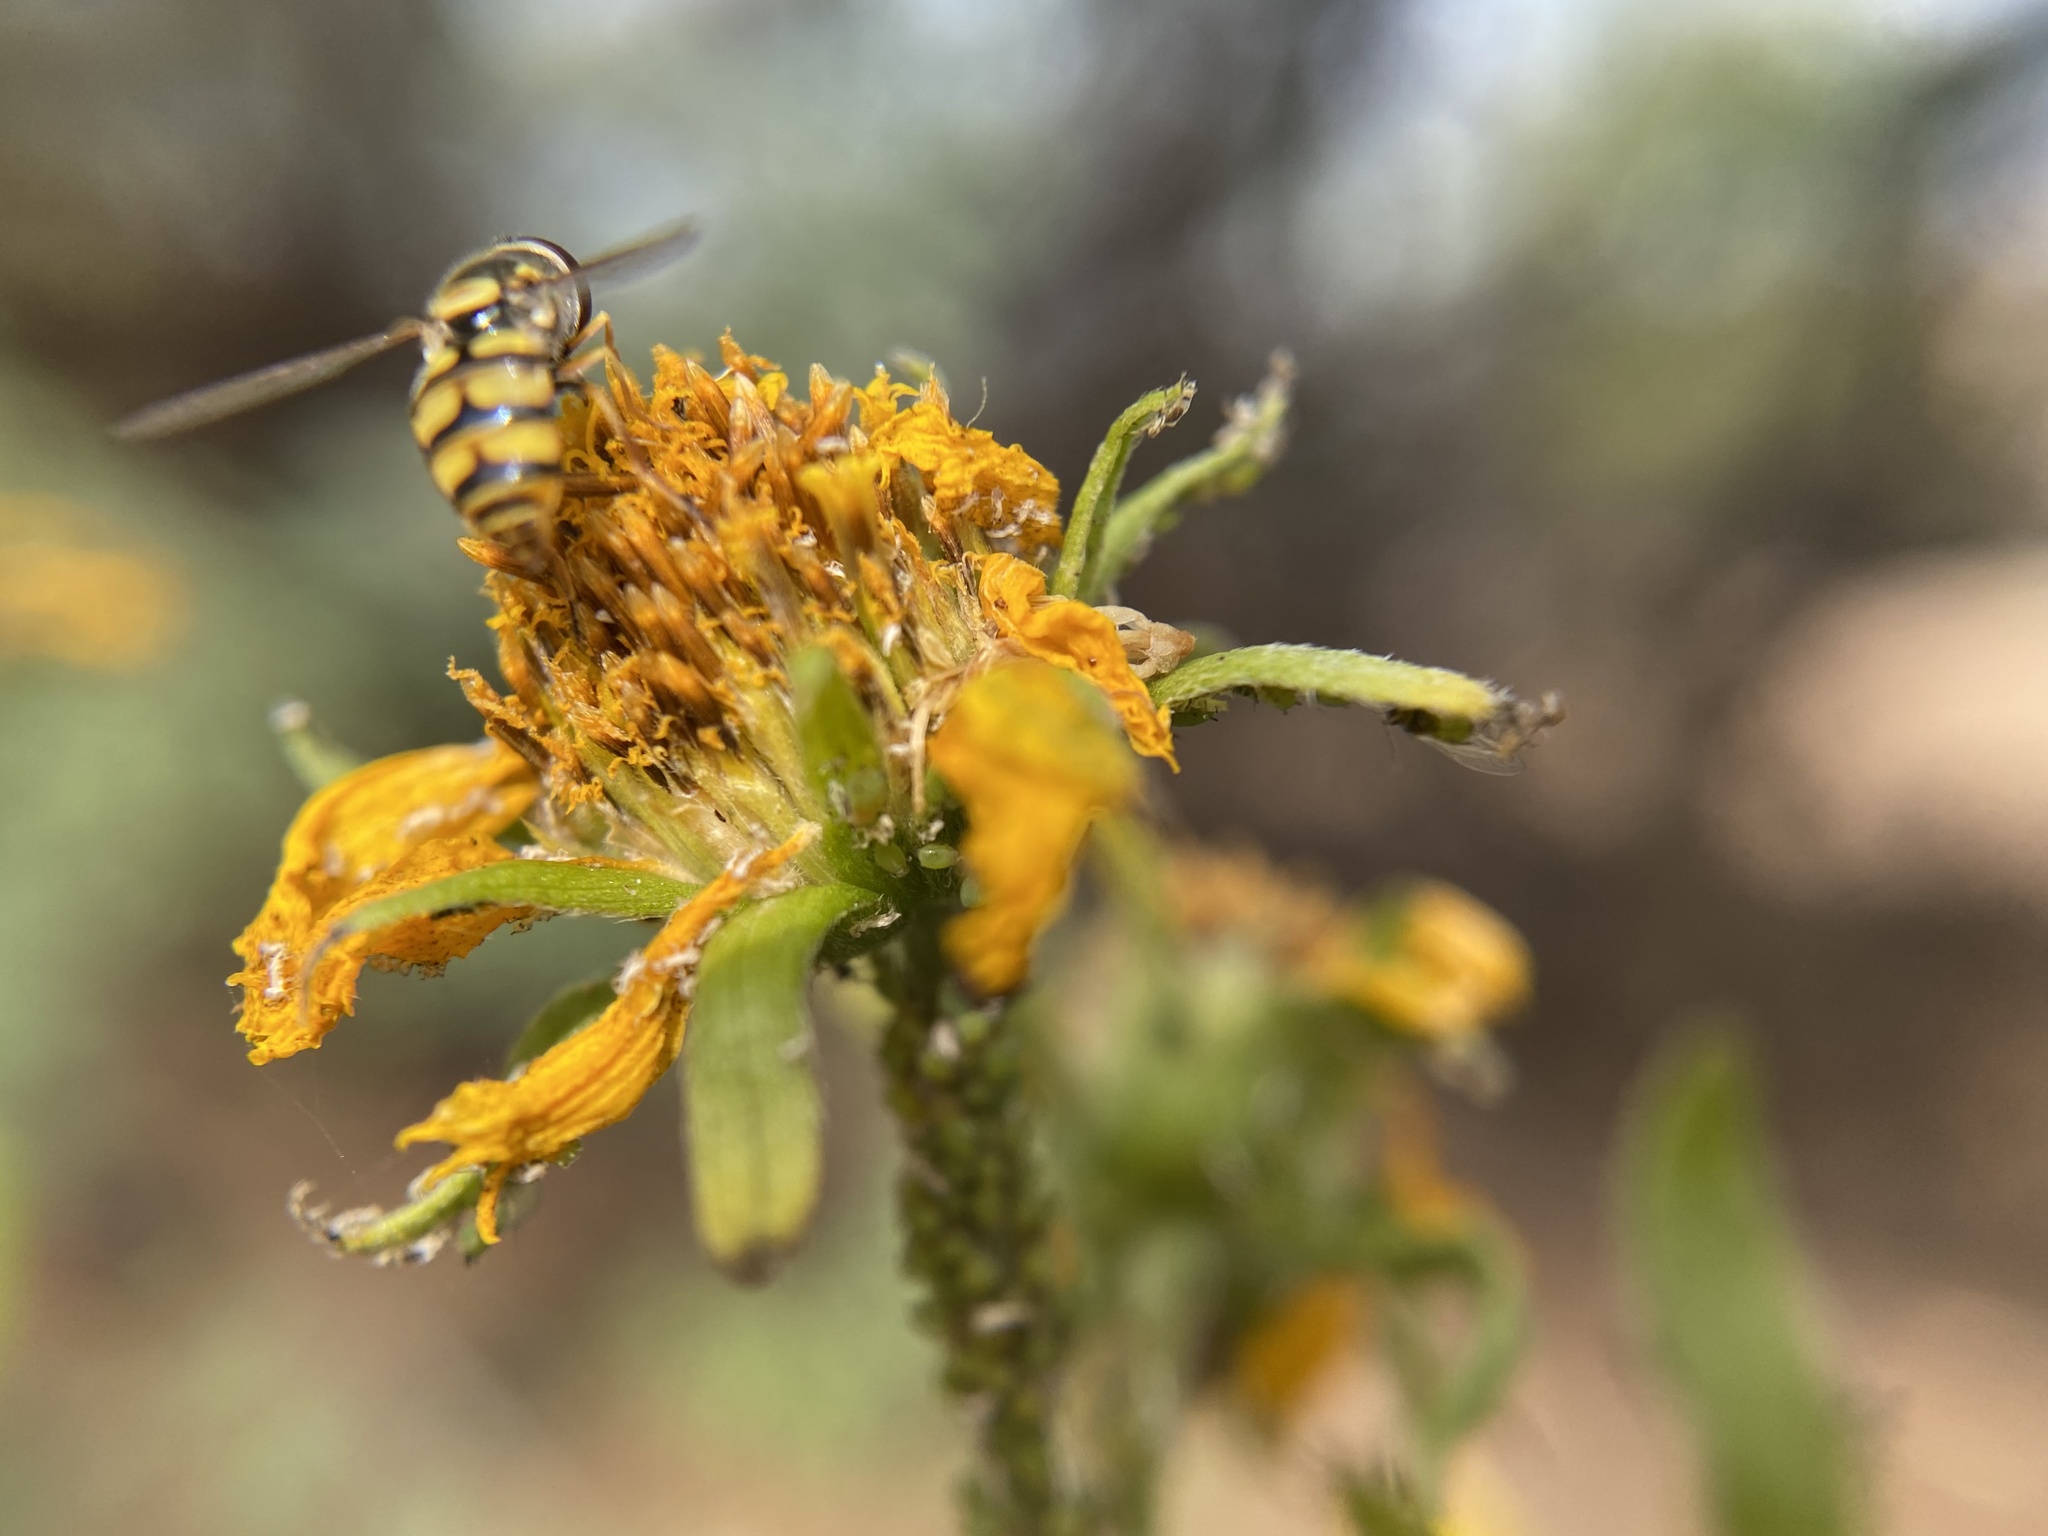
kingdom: Animalia
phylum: Arthropoda
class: Insecta
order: Diptera
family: Syrphidae
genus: Simosyrphus
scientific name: Simosyrphus grandicornis
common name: Hoverfly
